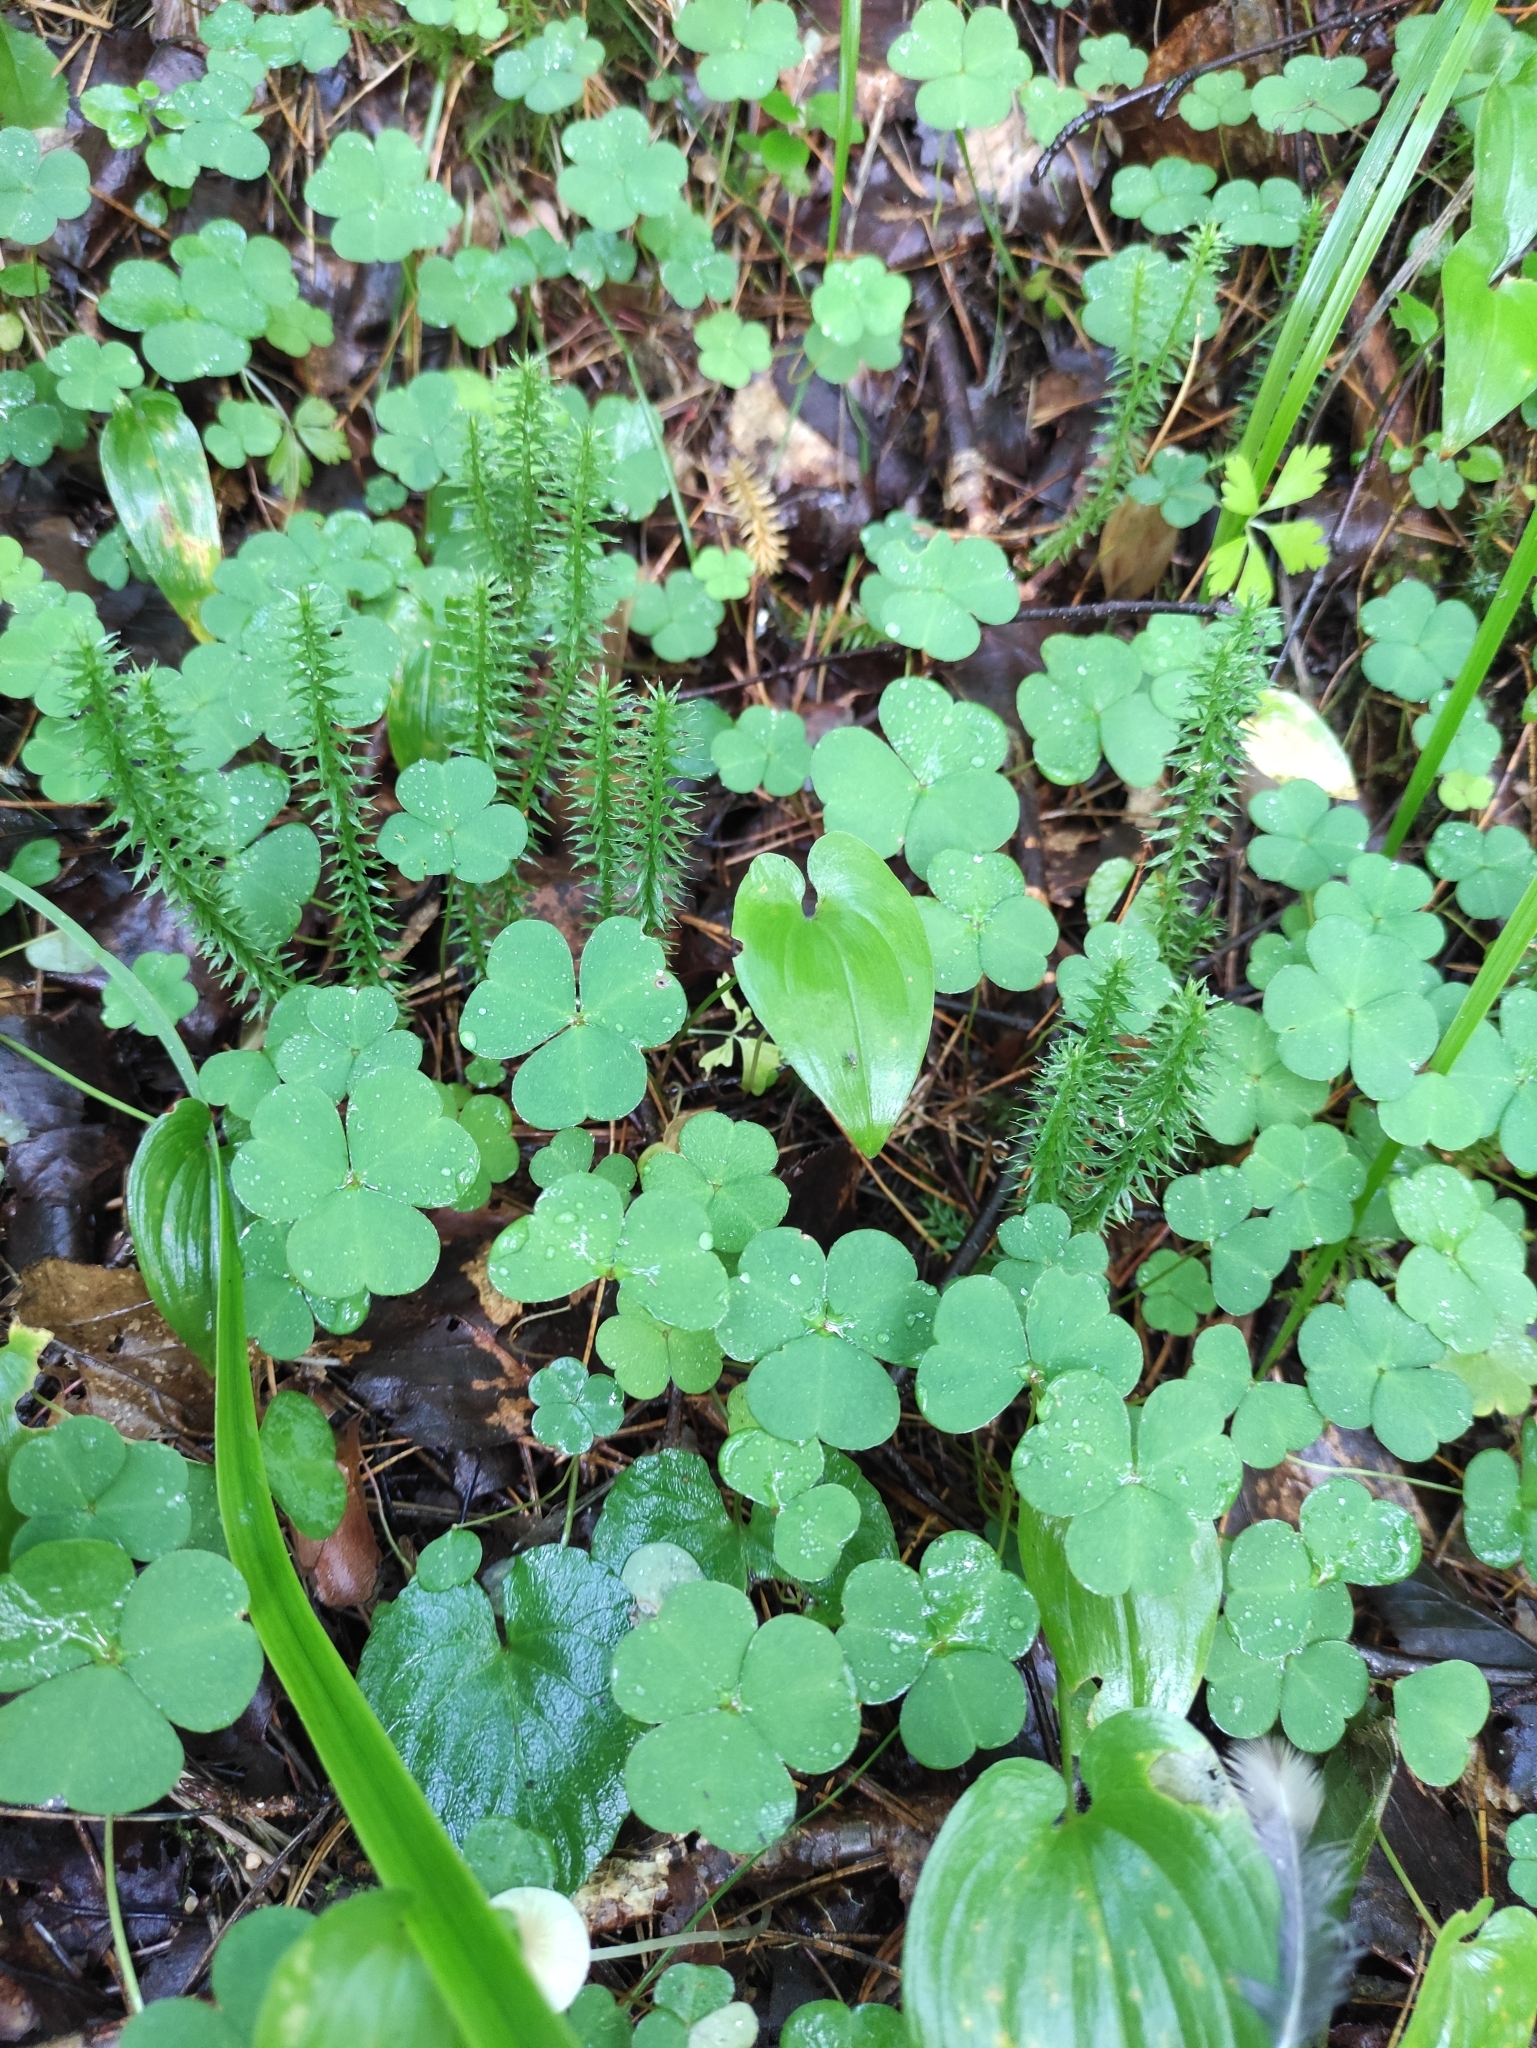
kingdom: Plantae
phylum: Tracheophyta
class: Magnoliopsida
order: Oxalidales
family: Oxalidaceae
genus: Oxalis
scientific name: Oxalis acetosella
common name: Wood-sorrel
